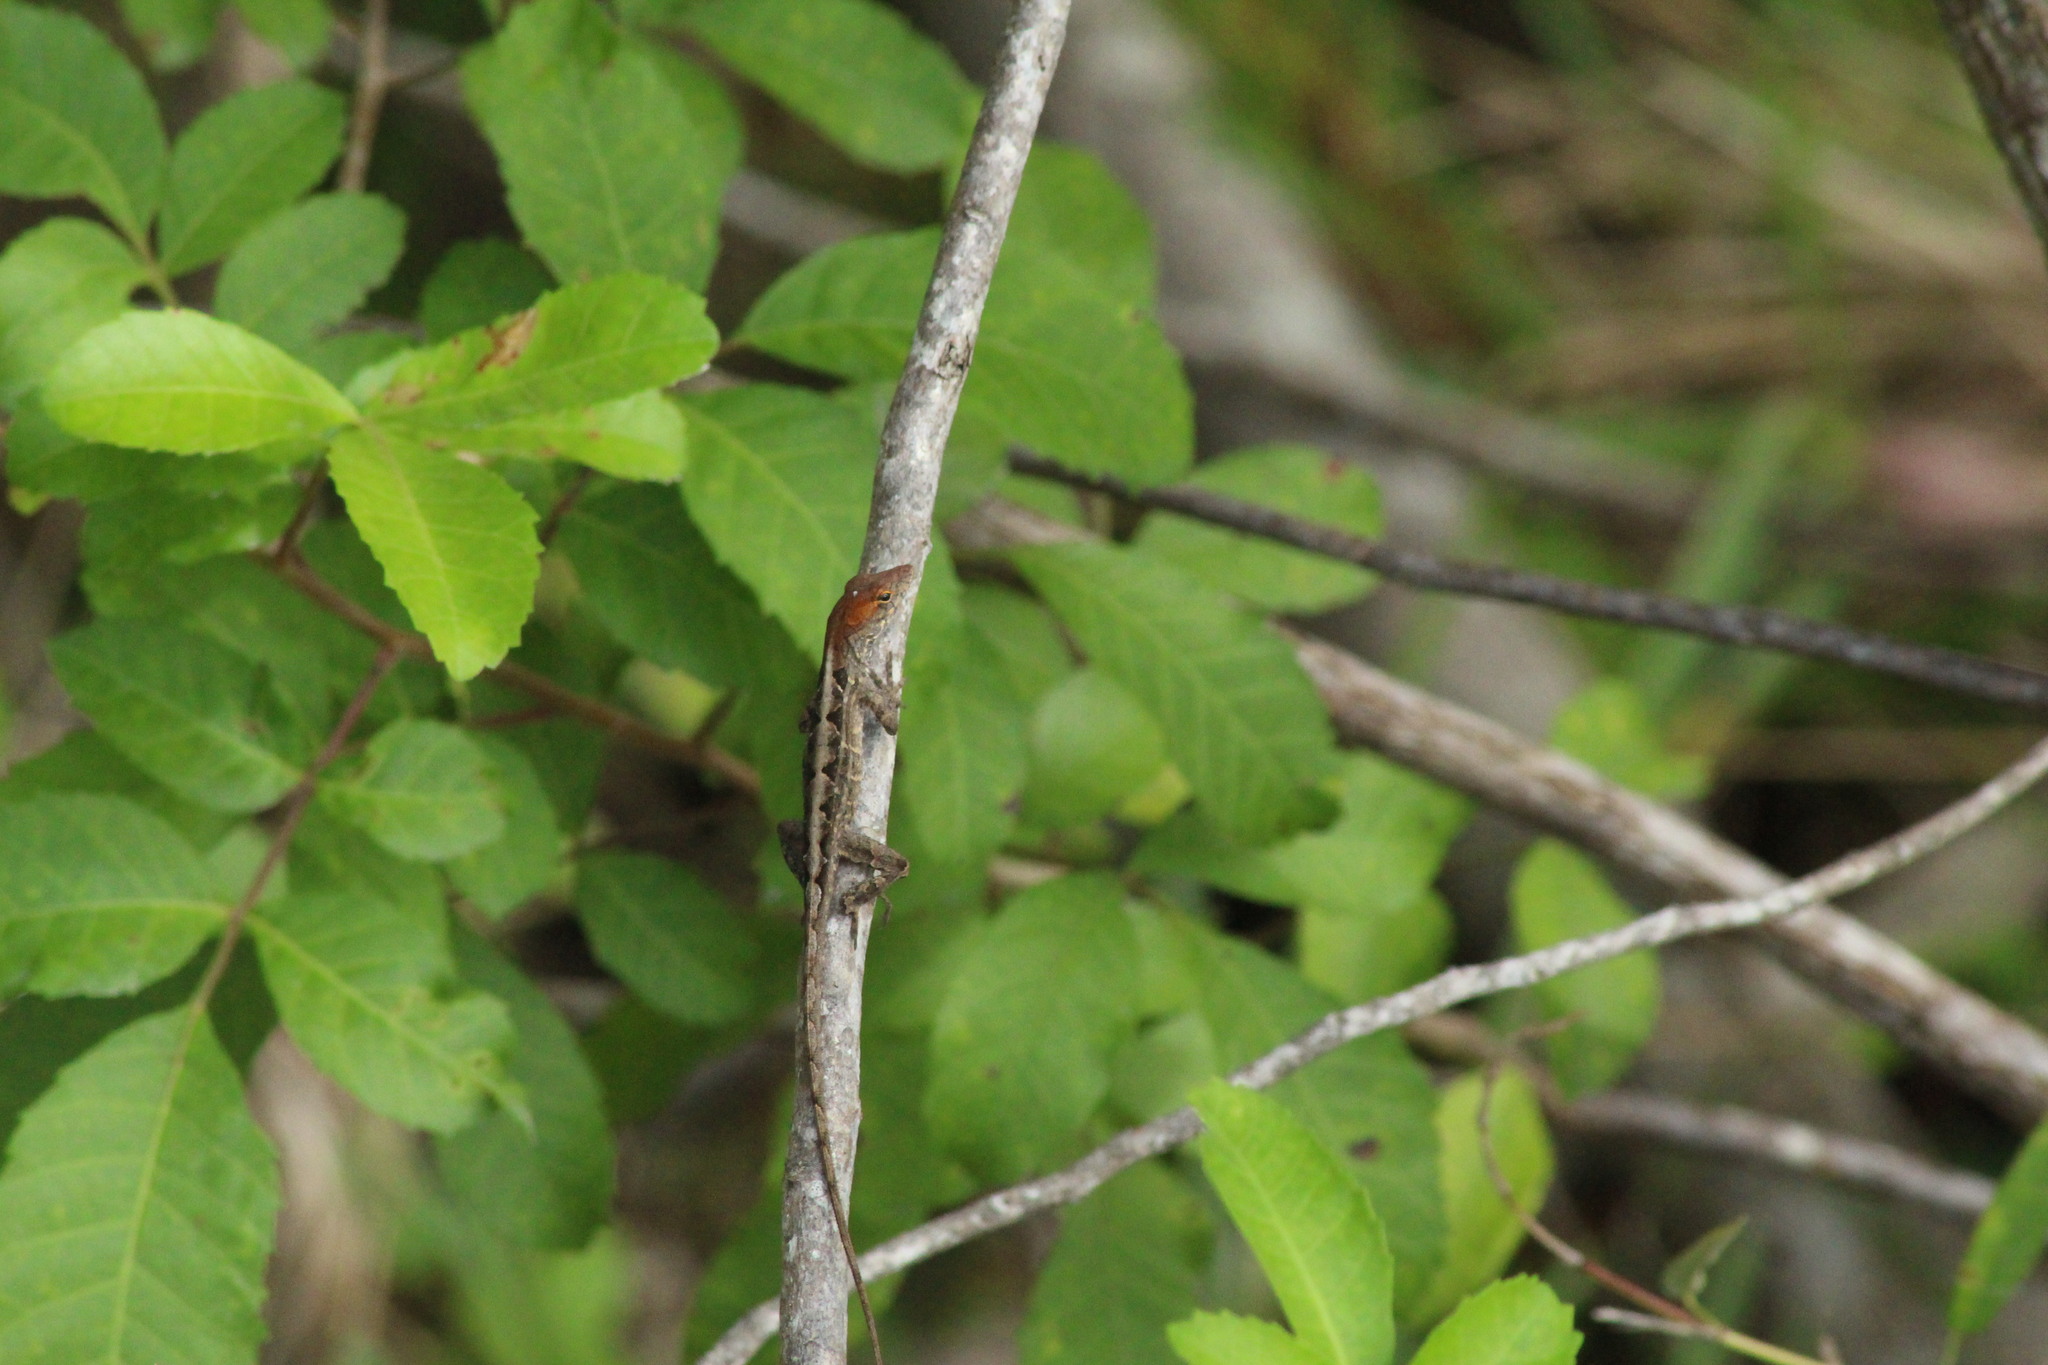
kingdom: Animalia
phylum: Chordata
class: Squamata
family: Dactyloidae
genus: Anolis
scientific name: Anolis sagrei
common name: Brown anole
